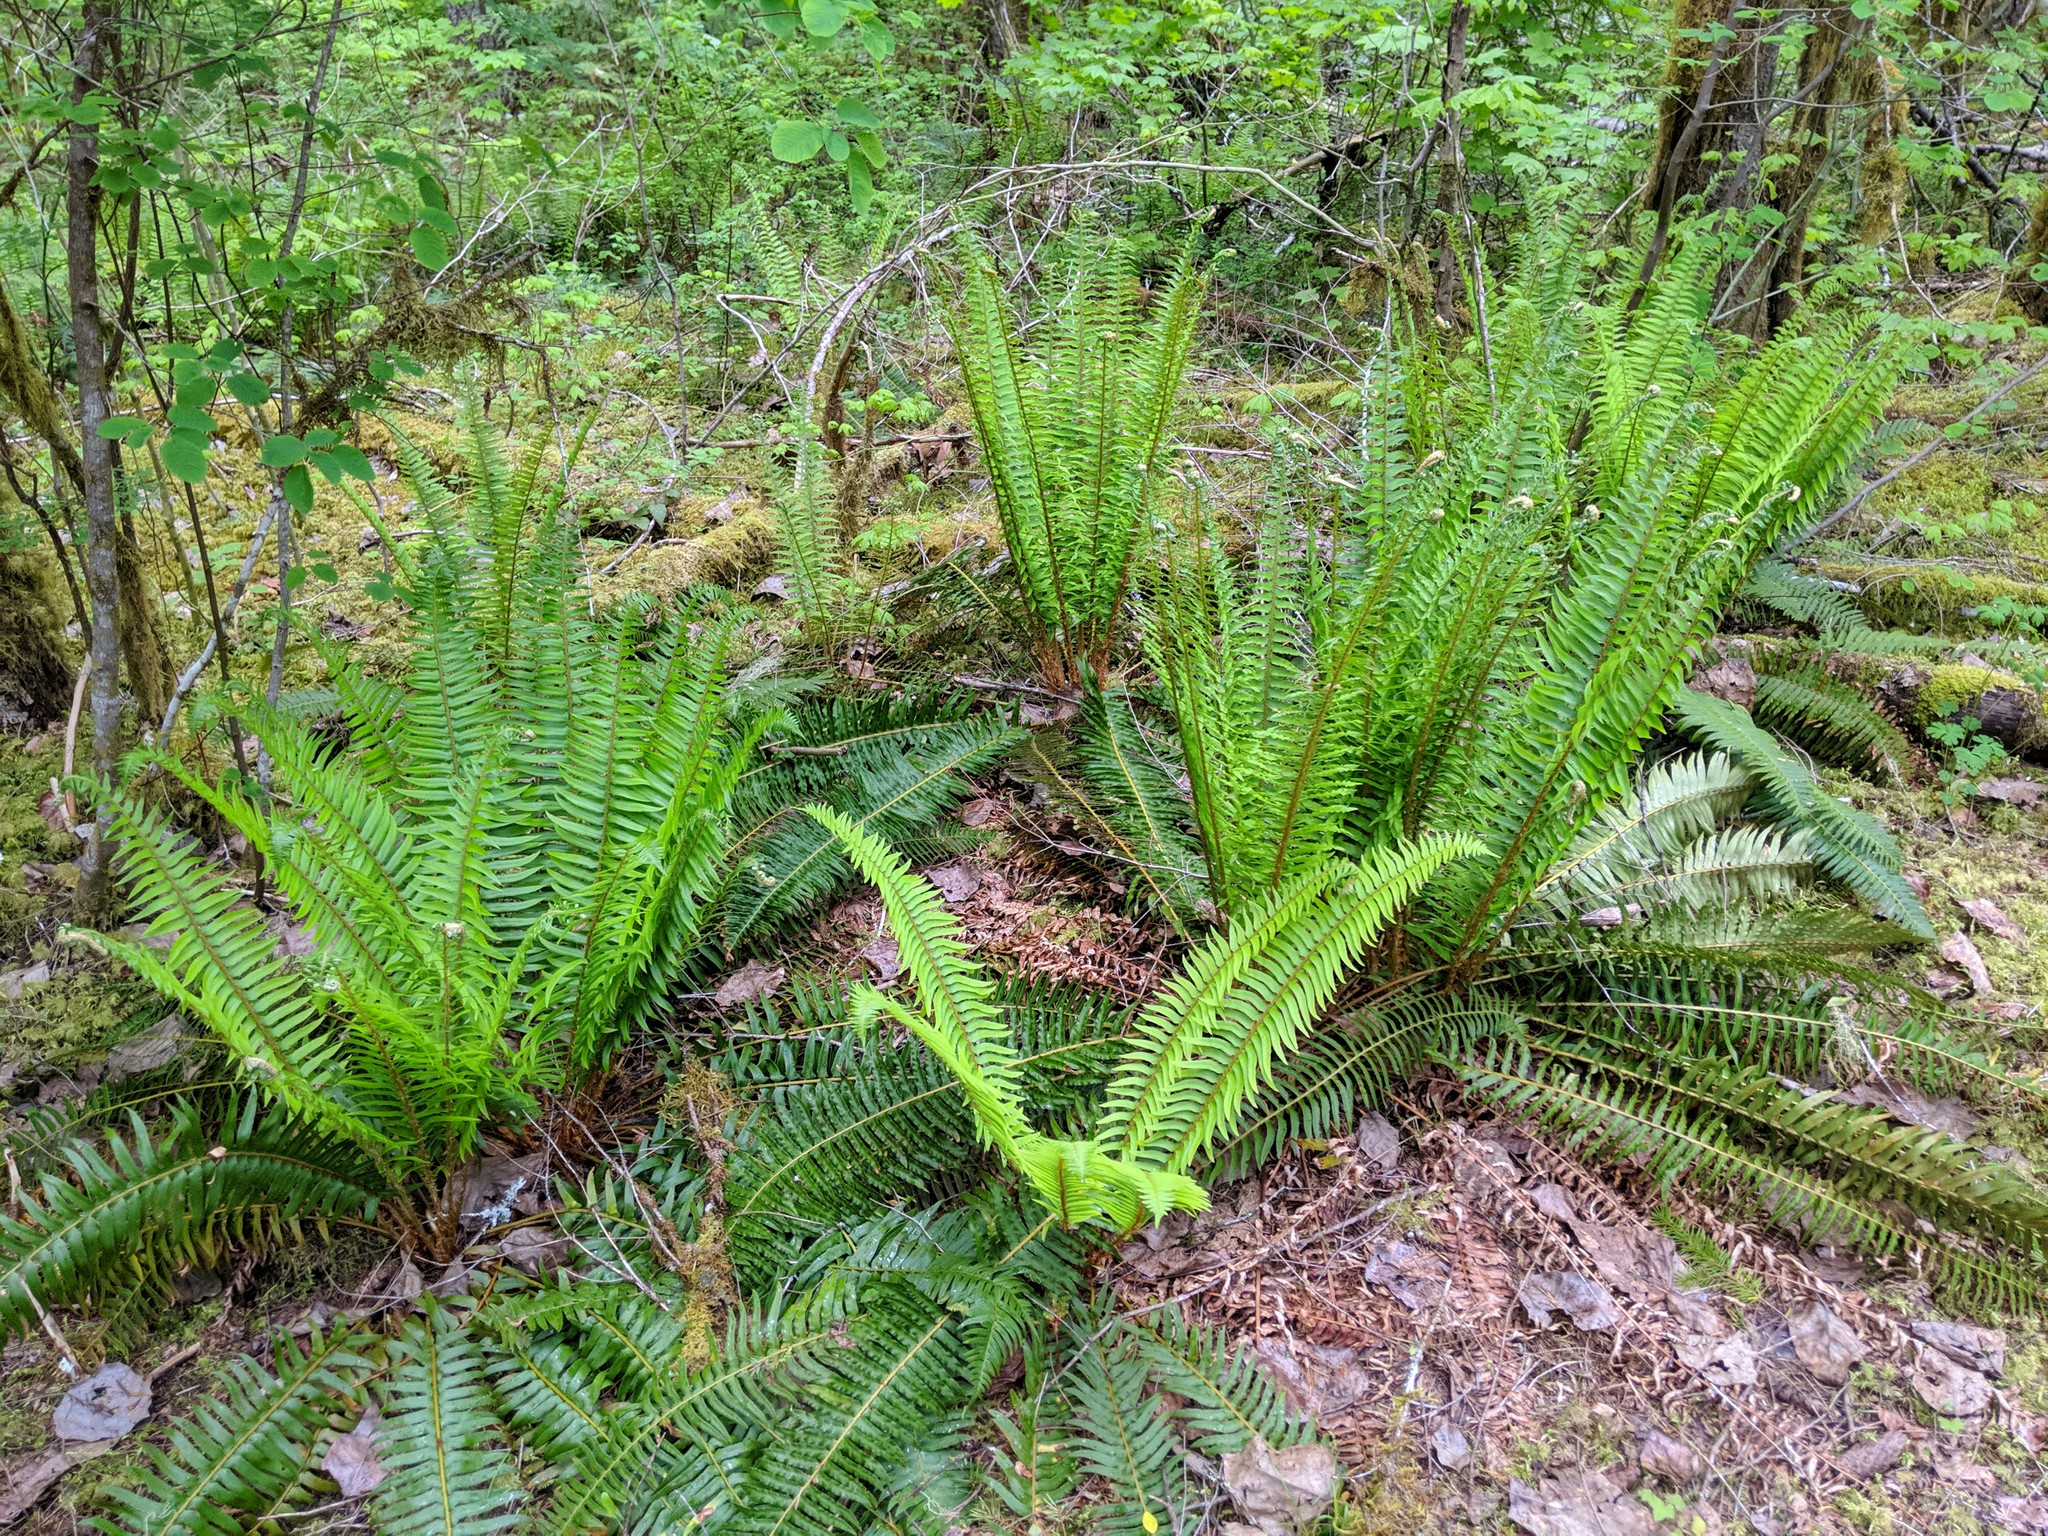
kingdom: Plantae
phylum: Tracheophyta
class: Polypodiopsida
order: Polypodiales
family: Dryopteridaceae
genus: Polystichum
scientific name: Polystichum munitum
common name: Western sword-fern
